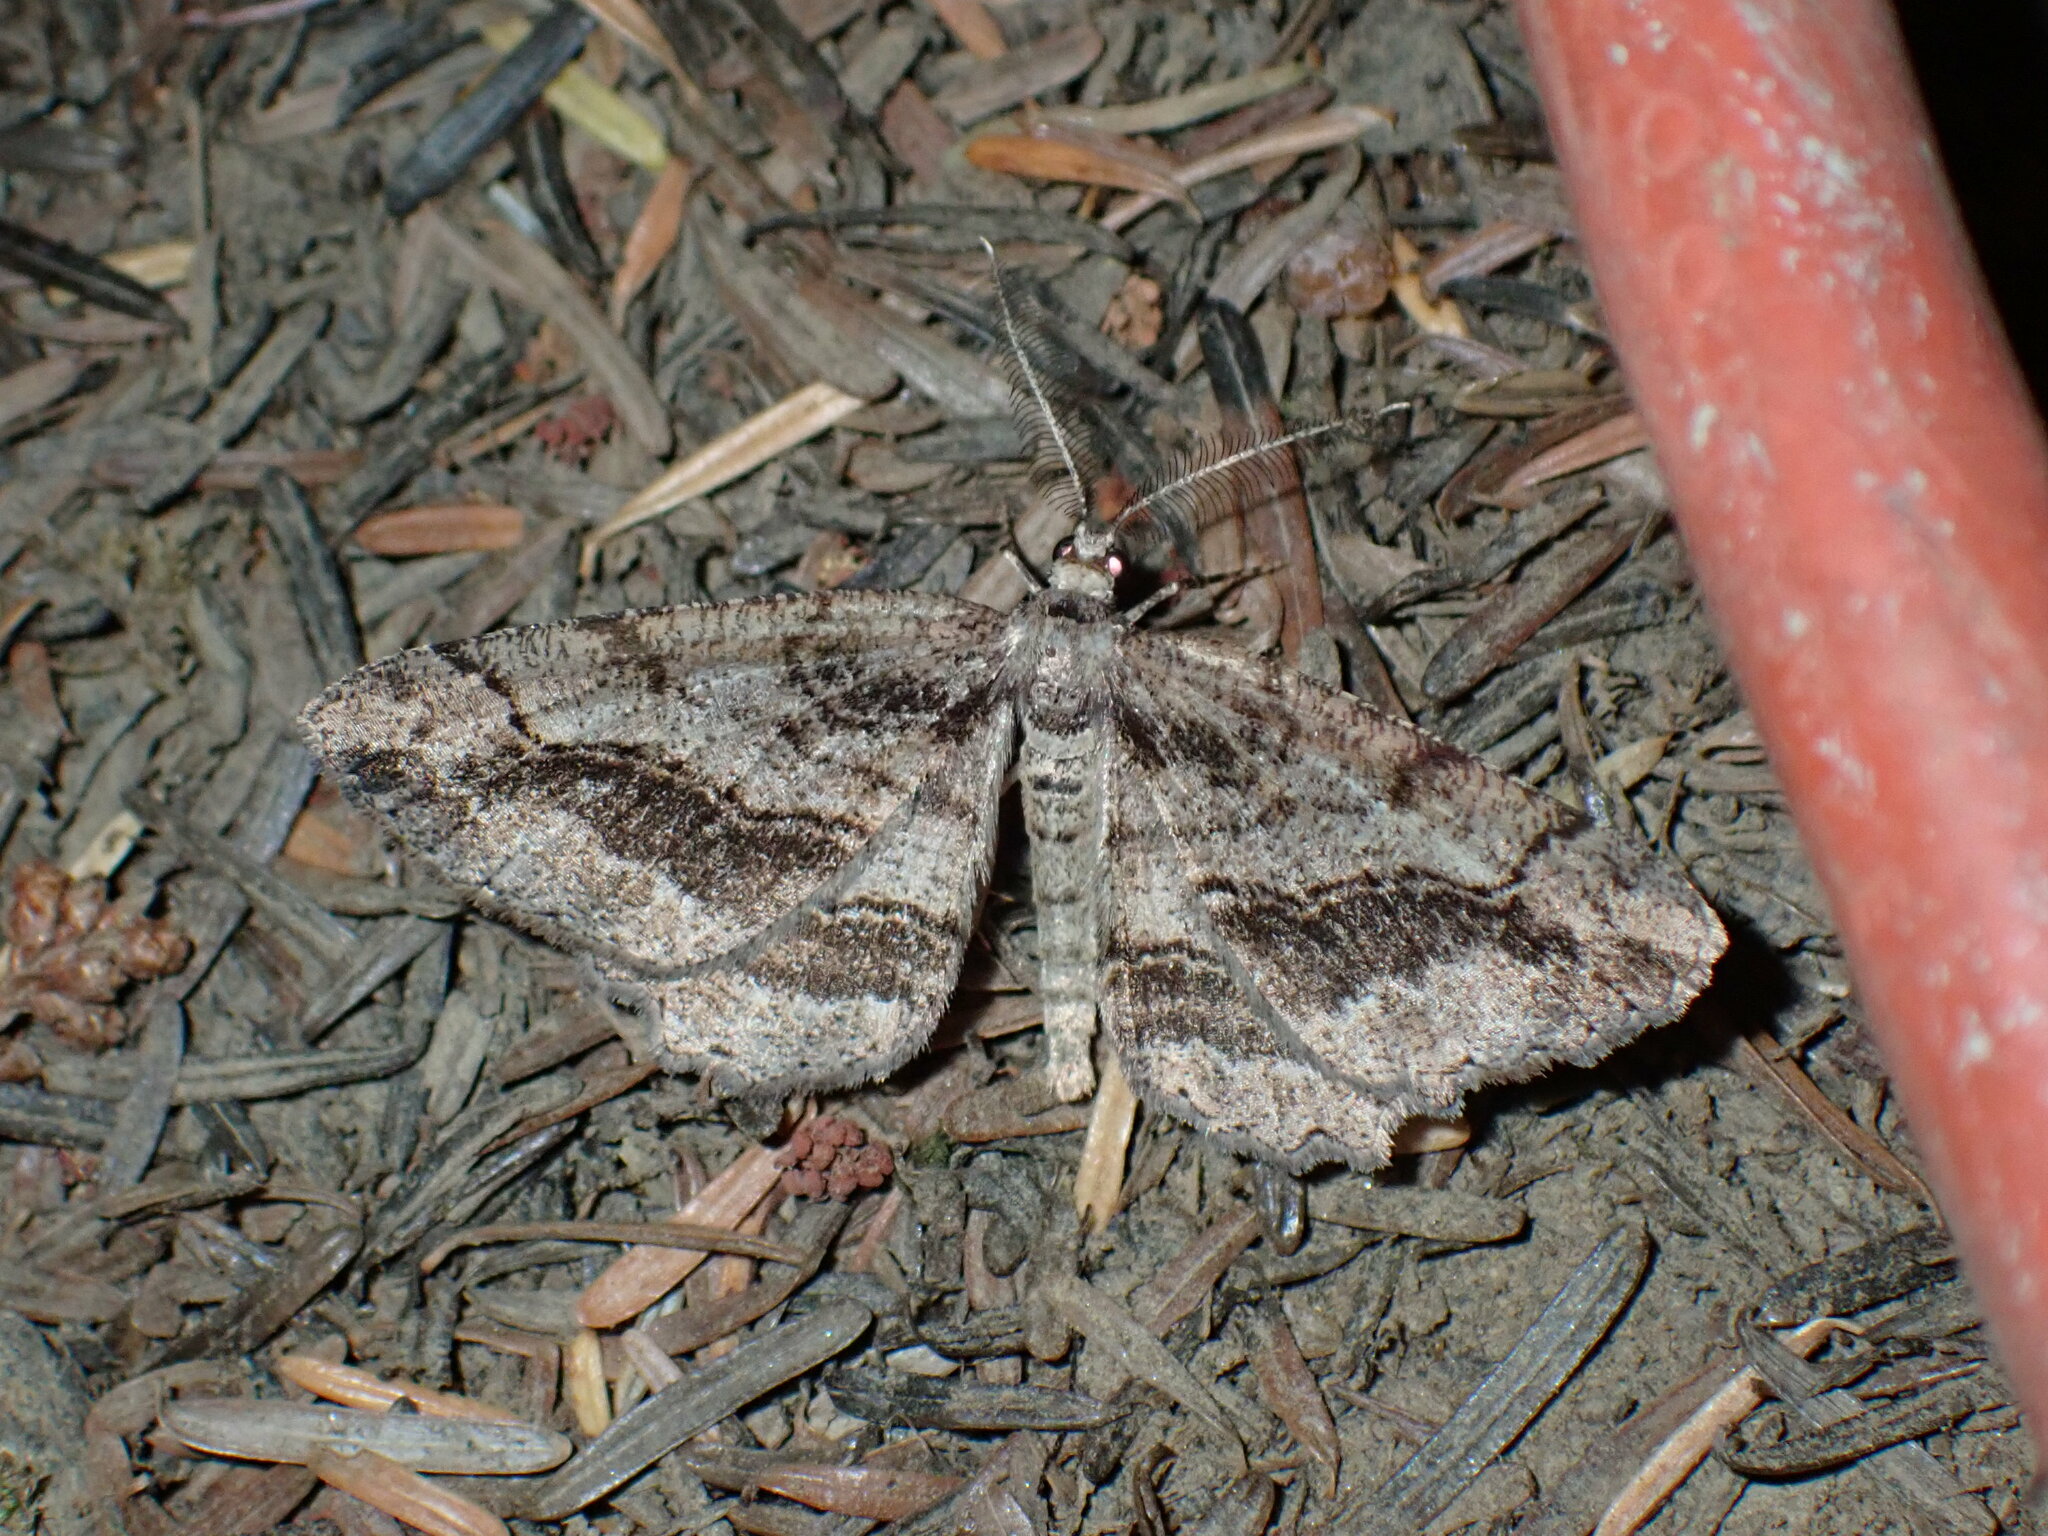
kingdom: Animalia
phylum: Arthropoda
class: Insecta
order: Lepidoptera
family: Geometridae
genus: Neoalcis
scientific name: Neoalcis californiaria
